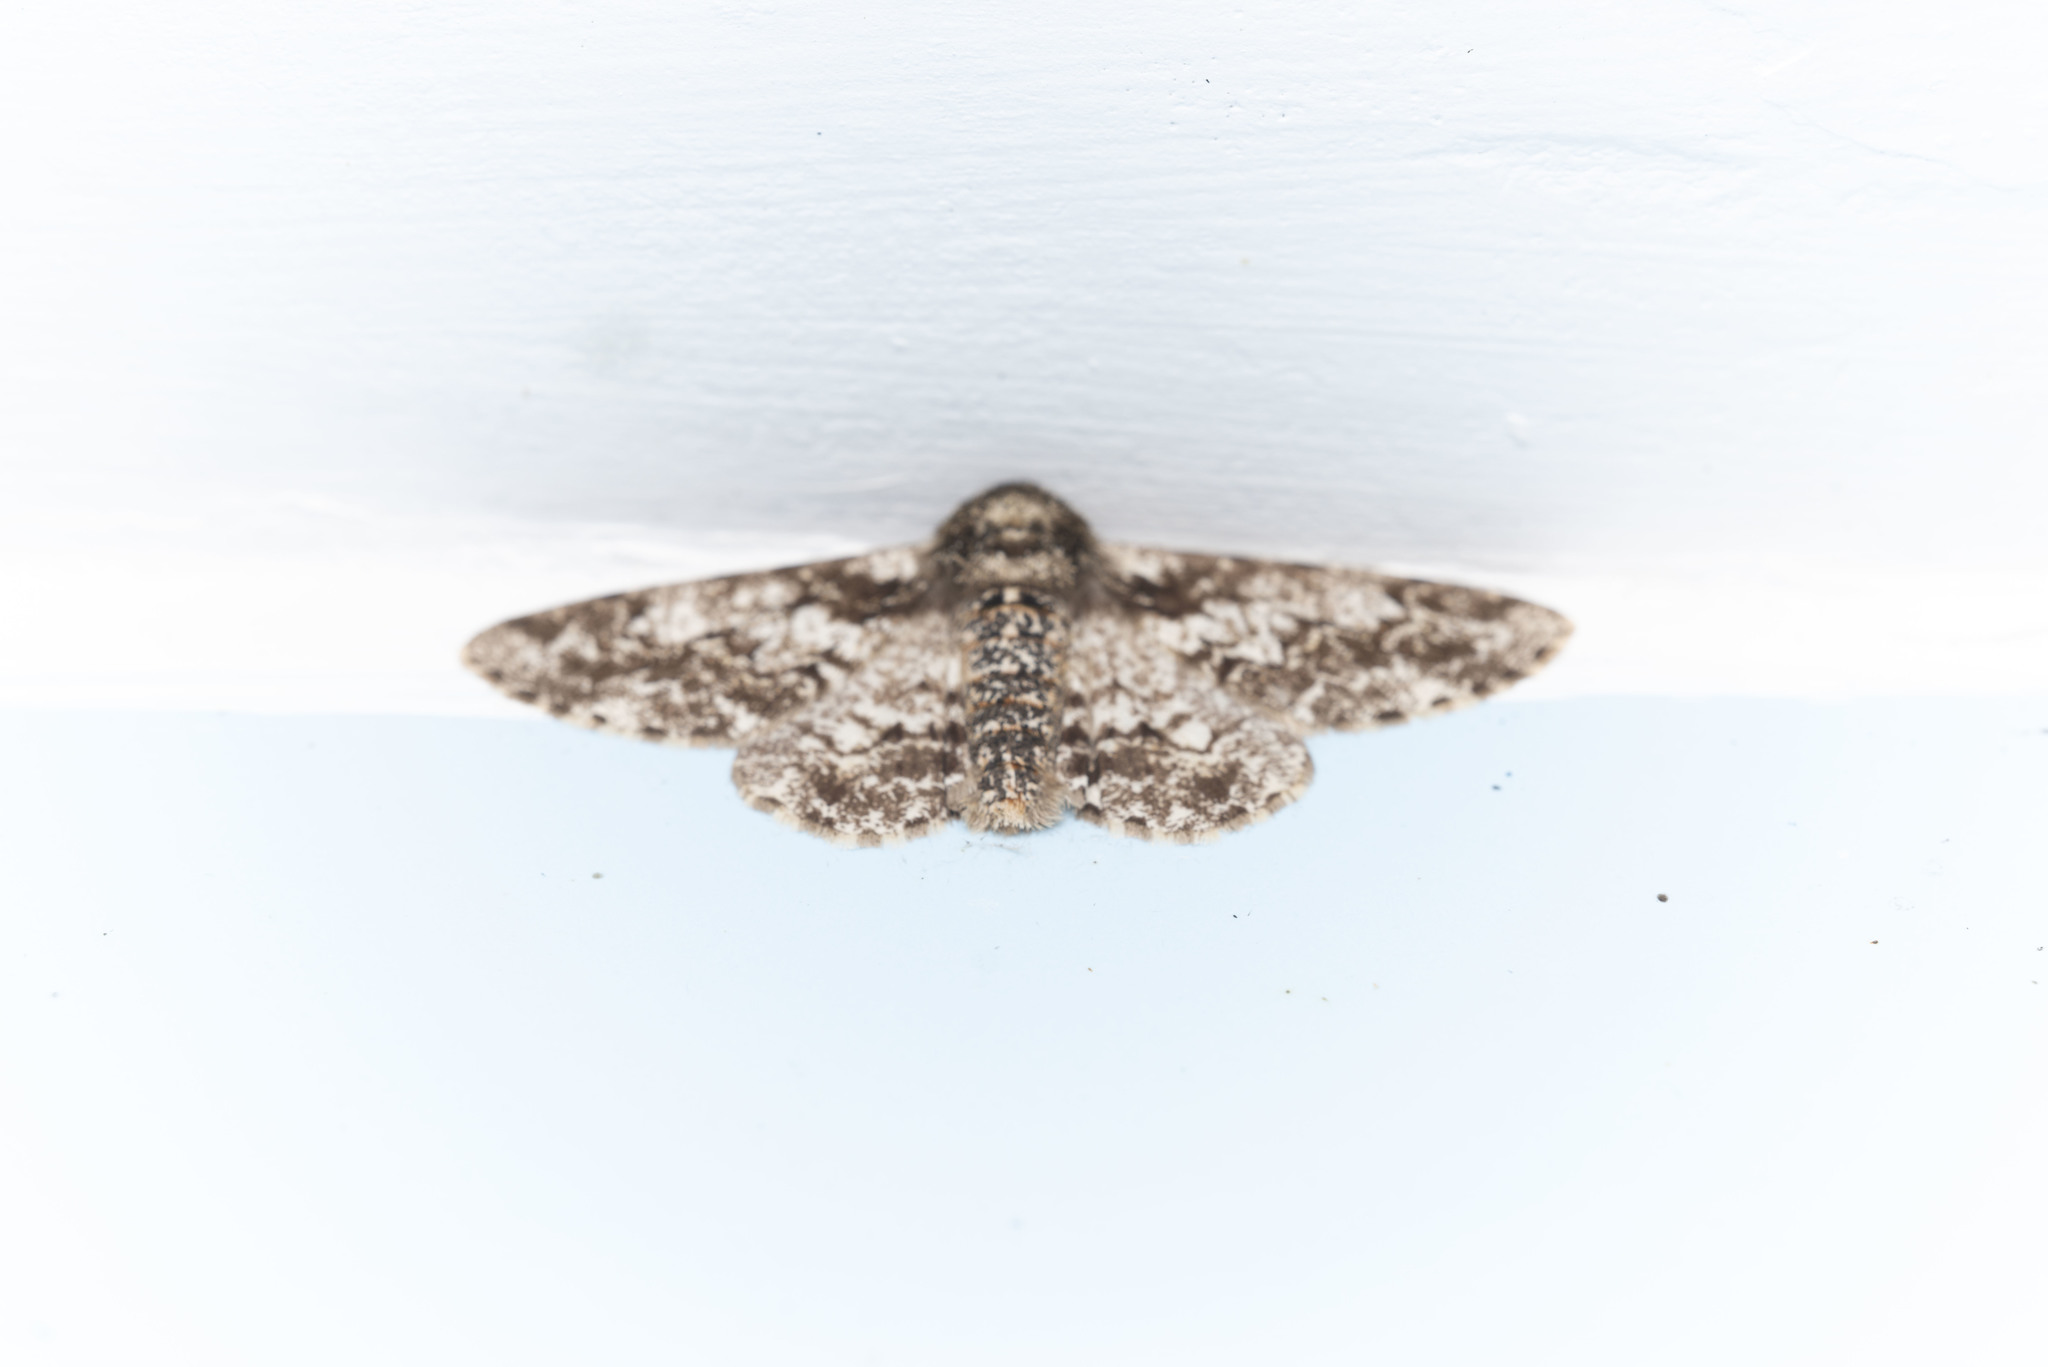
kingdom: Animalia
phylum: Arthropoda
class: Insecta
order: Lepidoptera
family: Geometridae
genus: Biston
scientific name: Biston marginata
